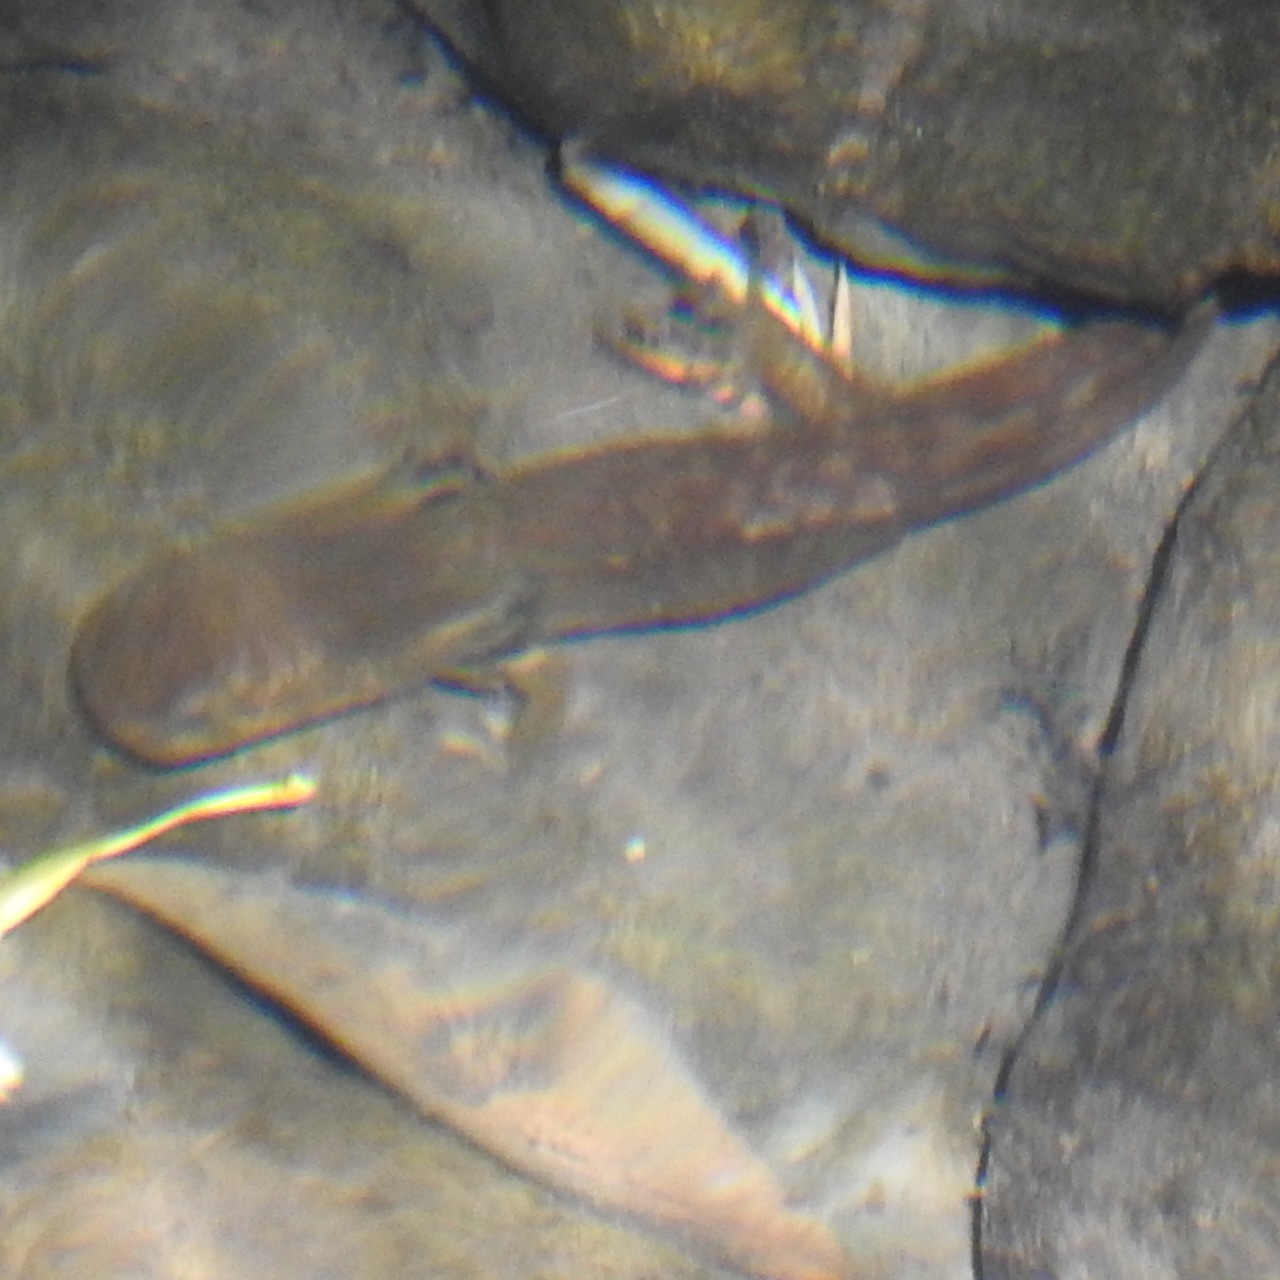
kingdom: Animalia
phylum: Chordata
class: Amphibia
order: Caudata
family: Ambystomatidae
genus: Dicamptodon
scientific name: Dicamptodon ensatus
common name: California giant salamander
